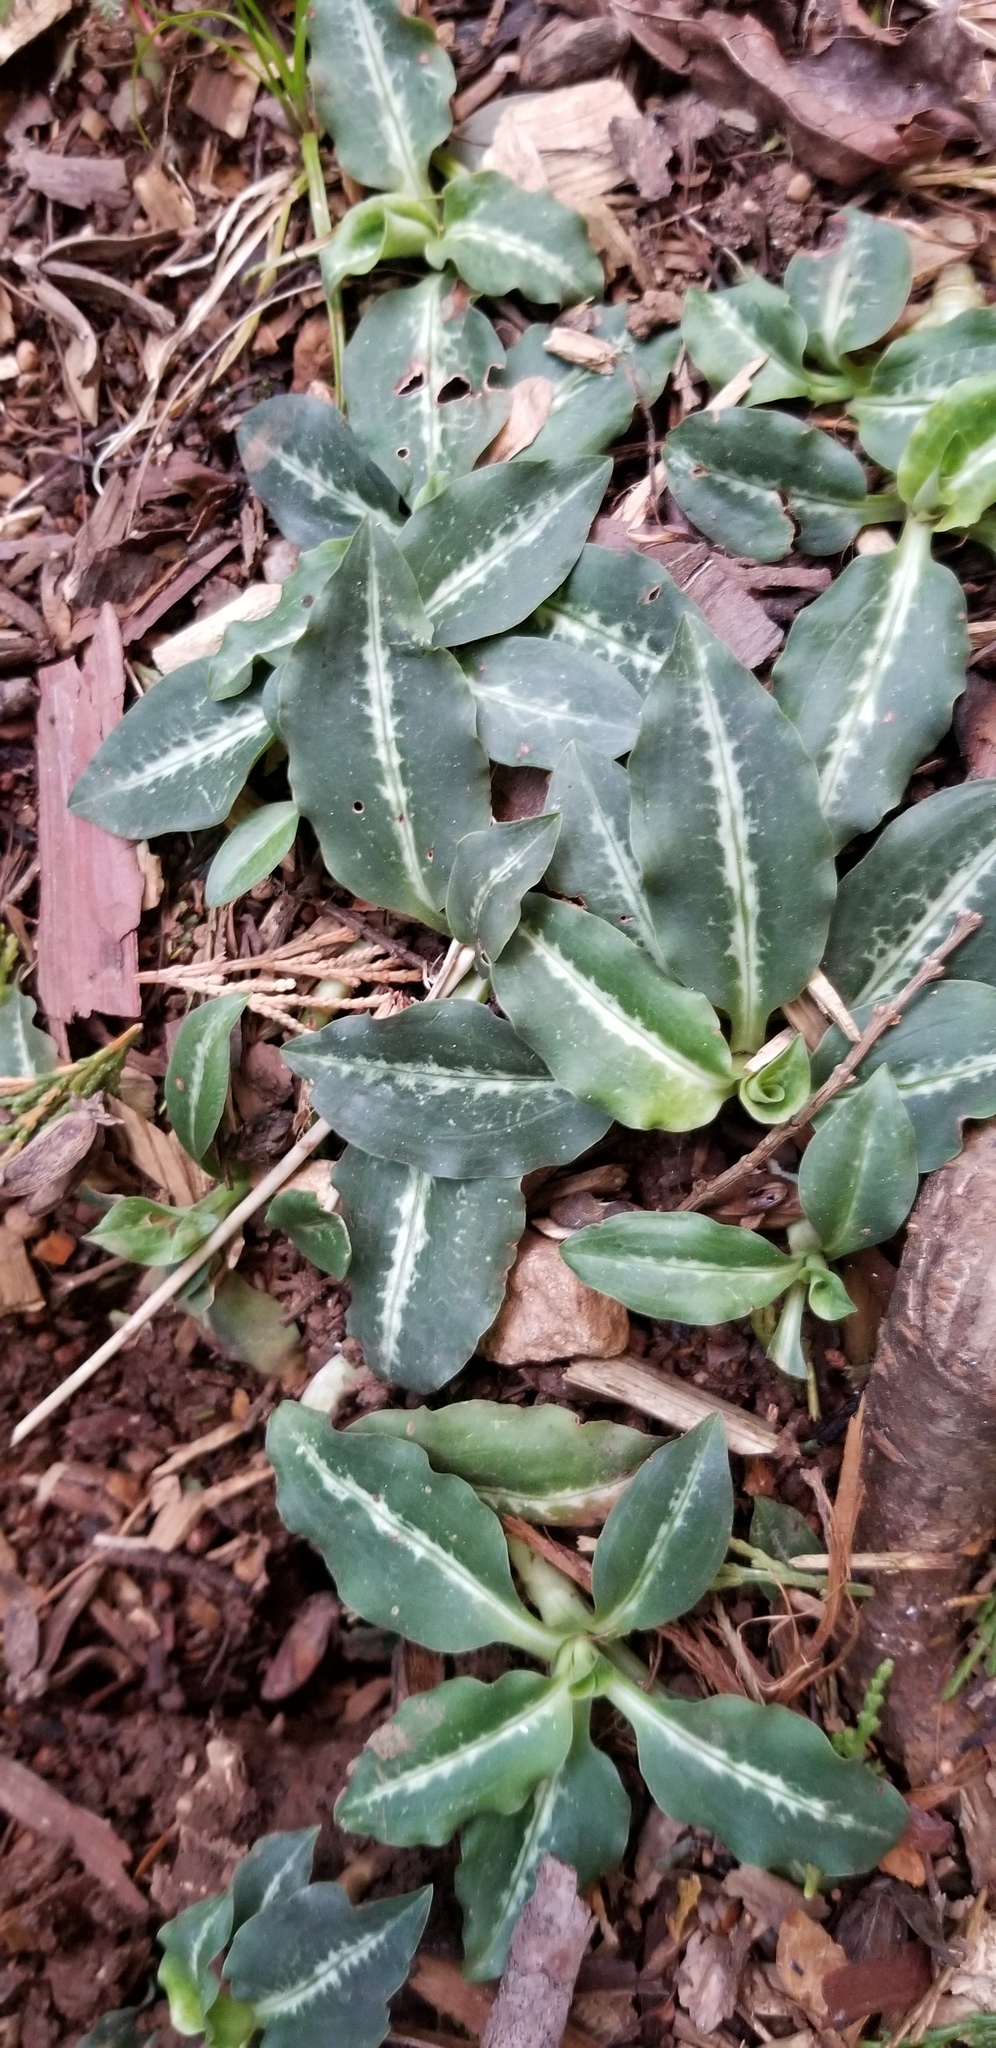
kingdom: Plantae
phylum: Tracheophyta
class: Liliopsida
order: Asparagales
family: Orchidaceae
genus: Goodyera
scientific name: Goodyera oblongifolia
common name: Giant rattlesnake-plantain
